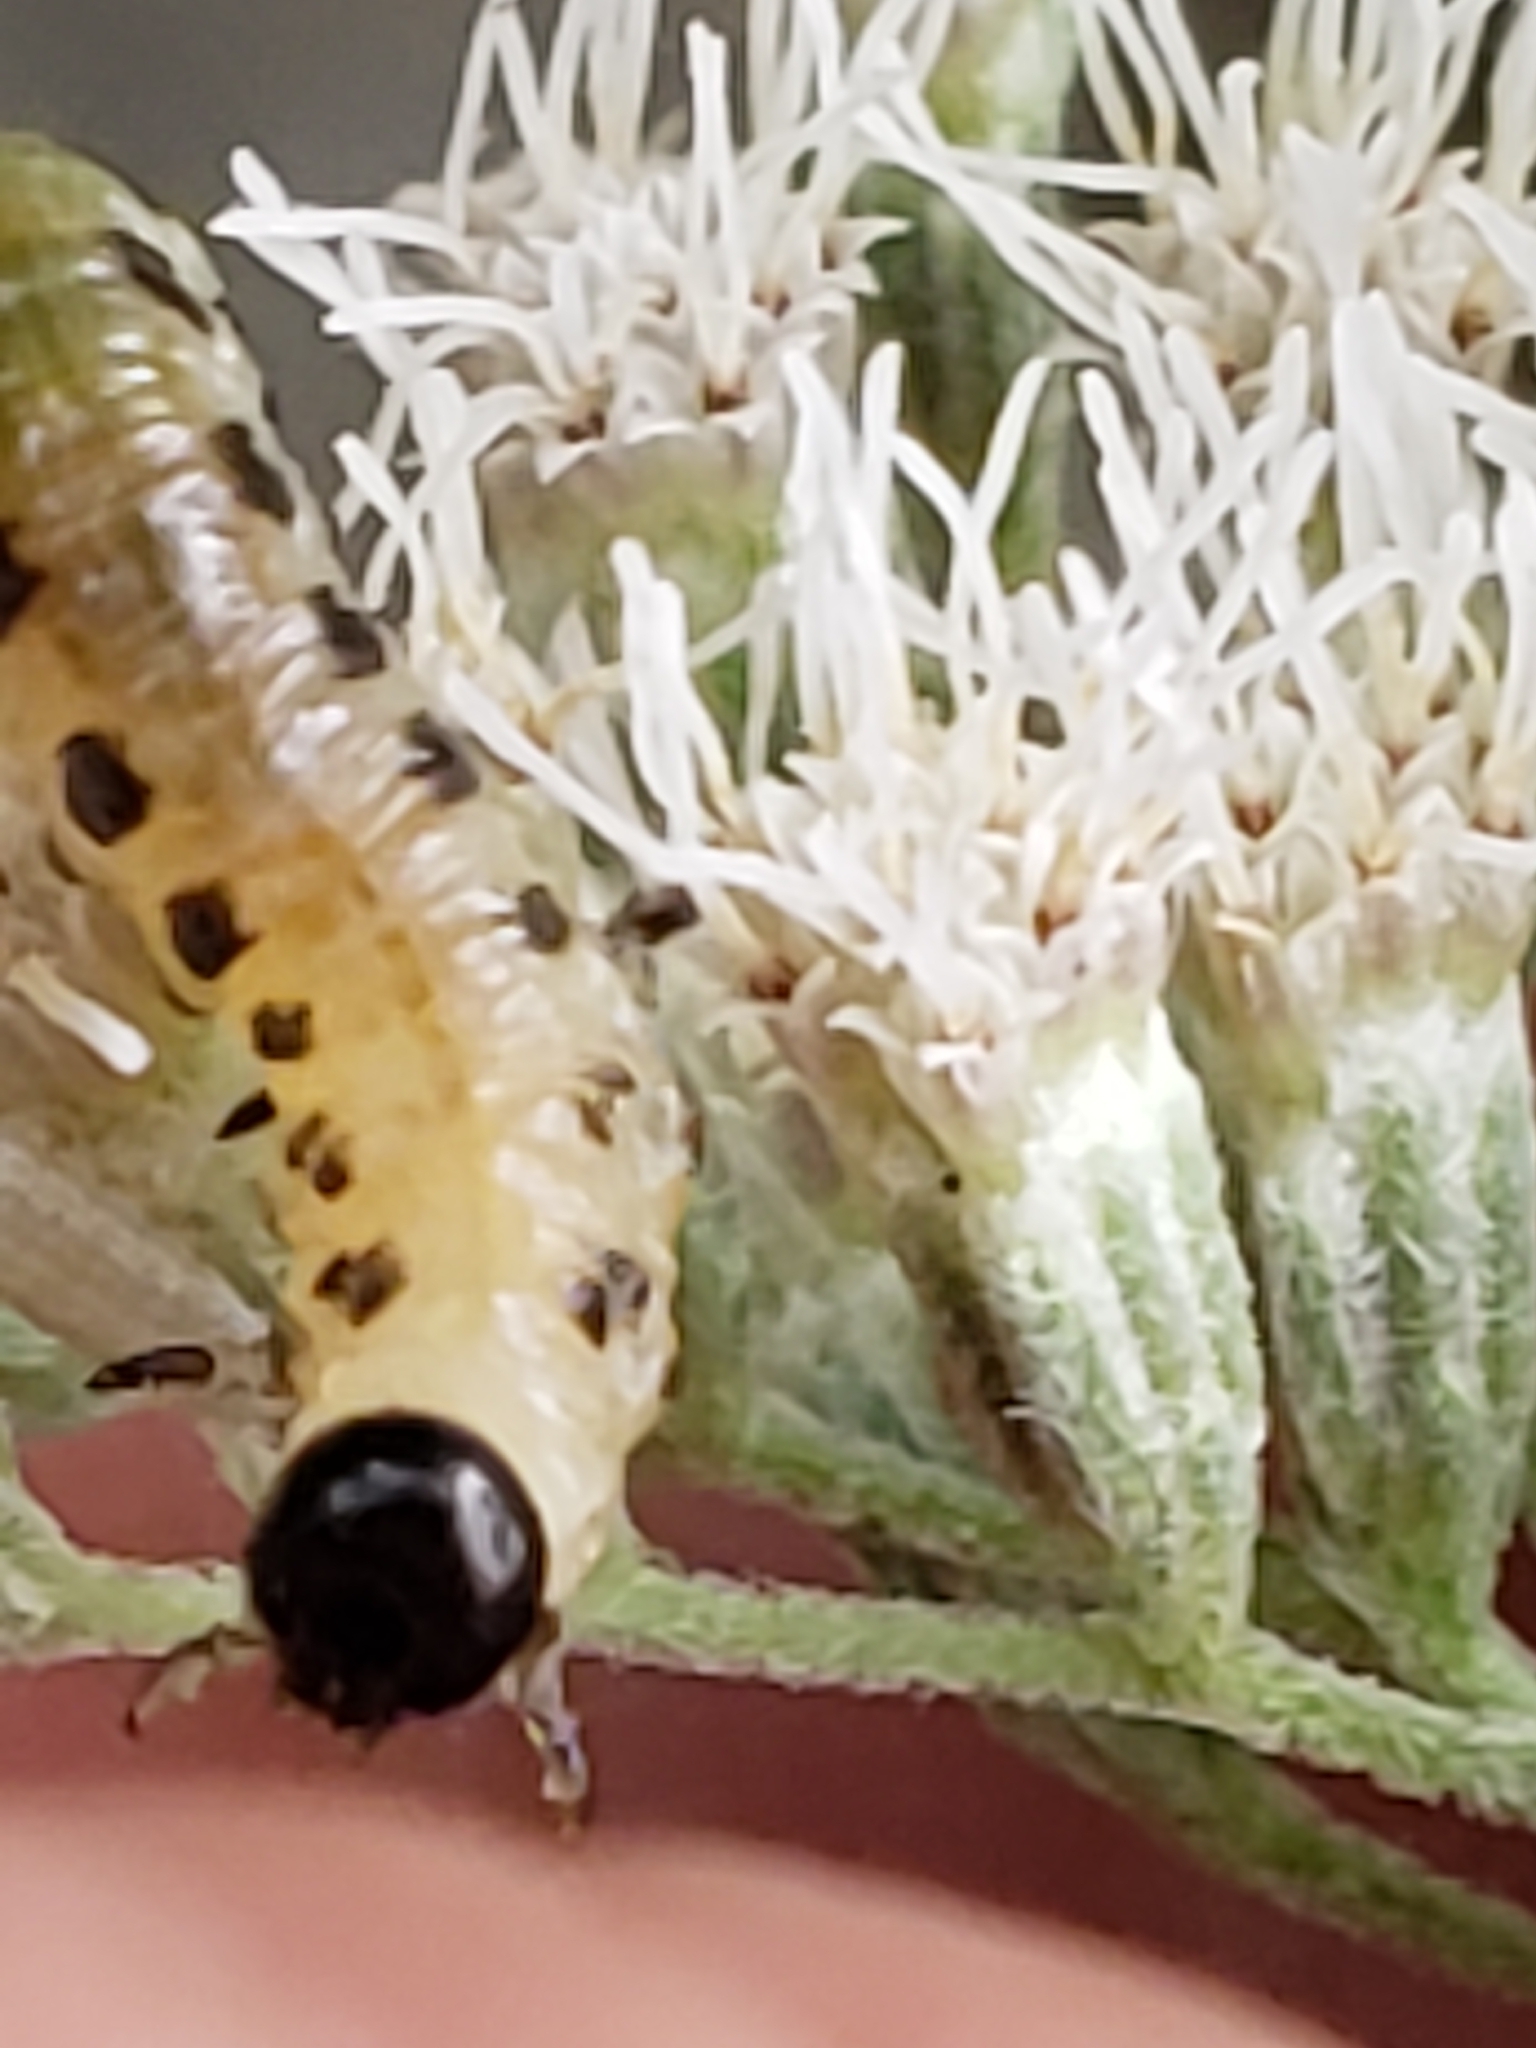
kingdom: Animalia
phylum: Arthropoda
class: Insecta
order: Hymenoptera
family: Tenthredinidae
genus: Nematus
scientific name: Nematus
